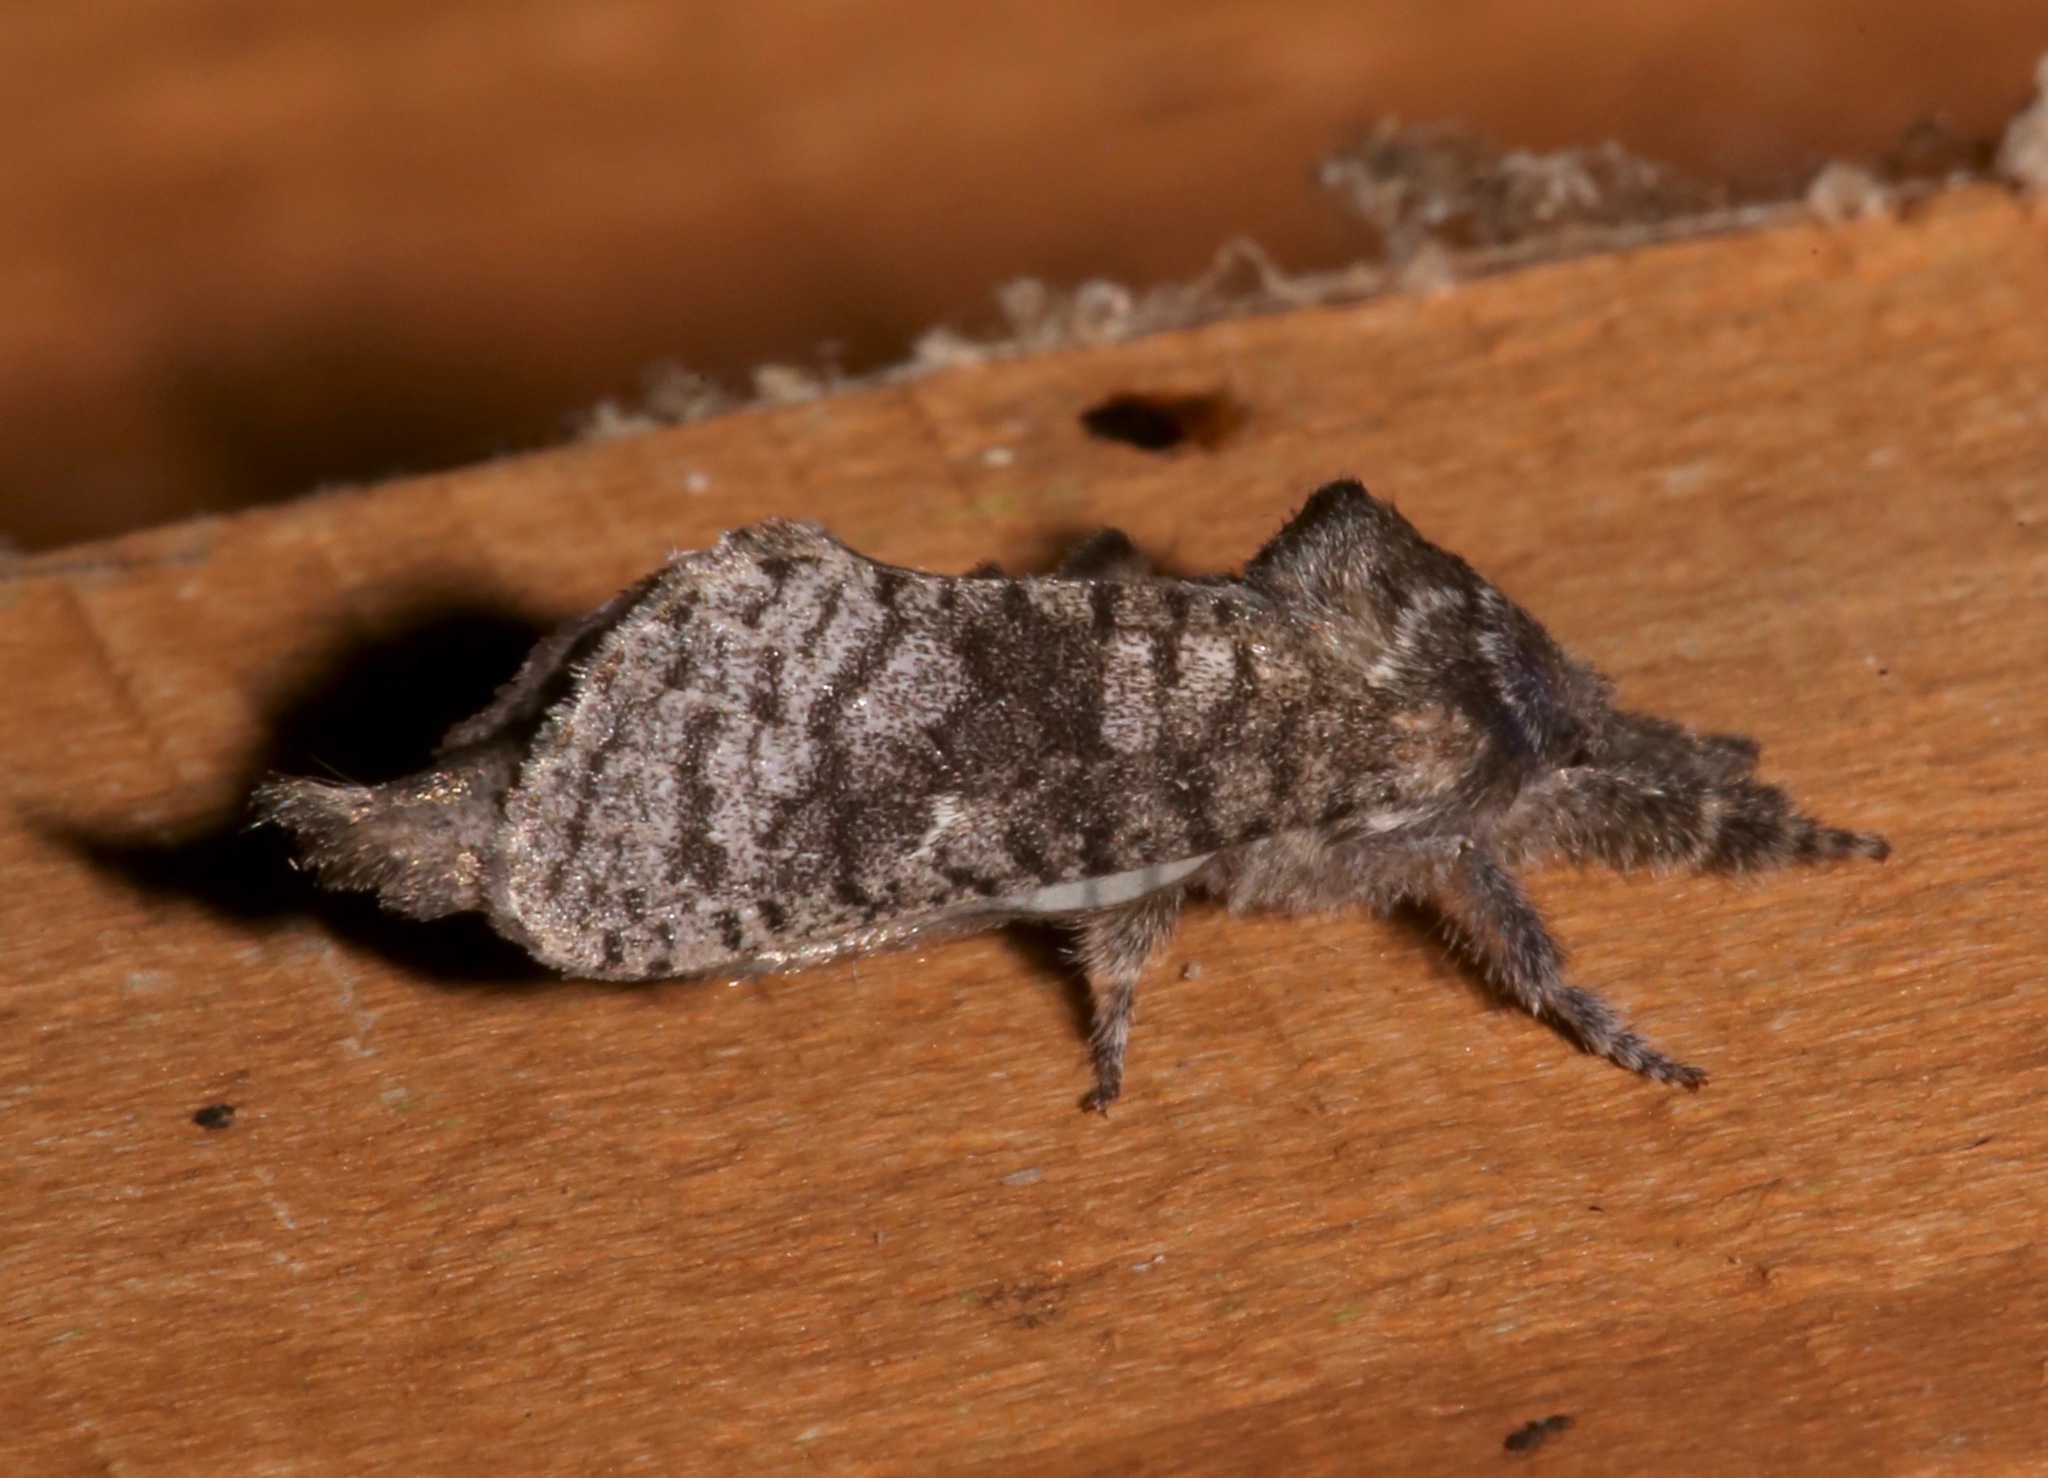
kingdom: Animalia
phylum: Arthropoda
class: Insecta
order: Lepidoptera
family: Cossidae
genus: Givira
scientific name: Givira francesca
